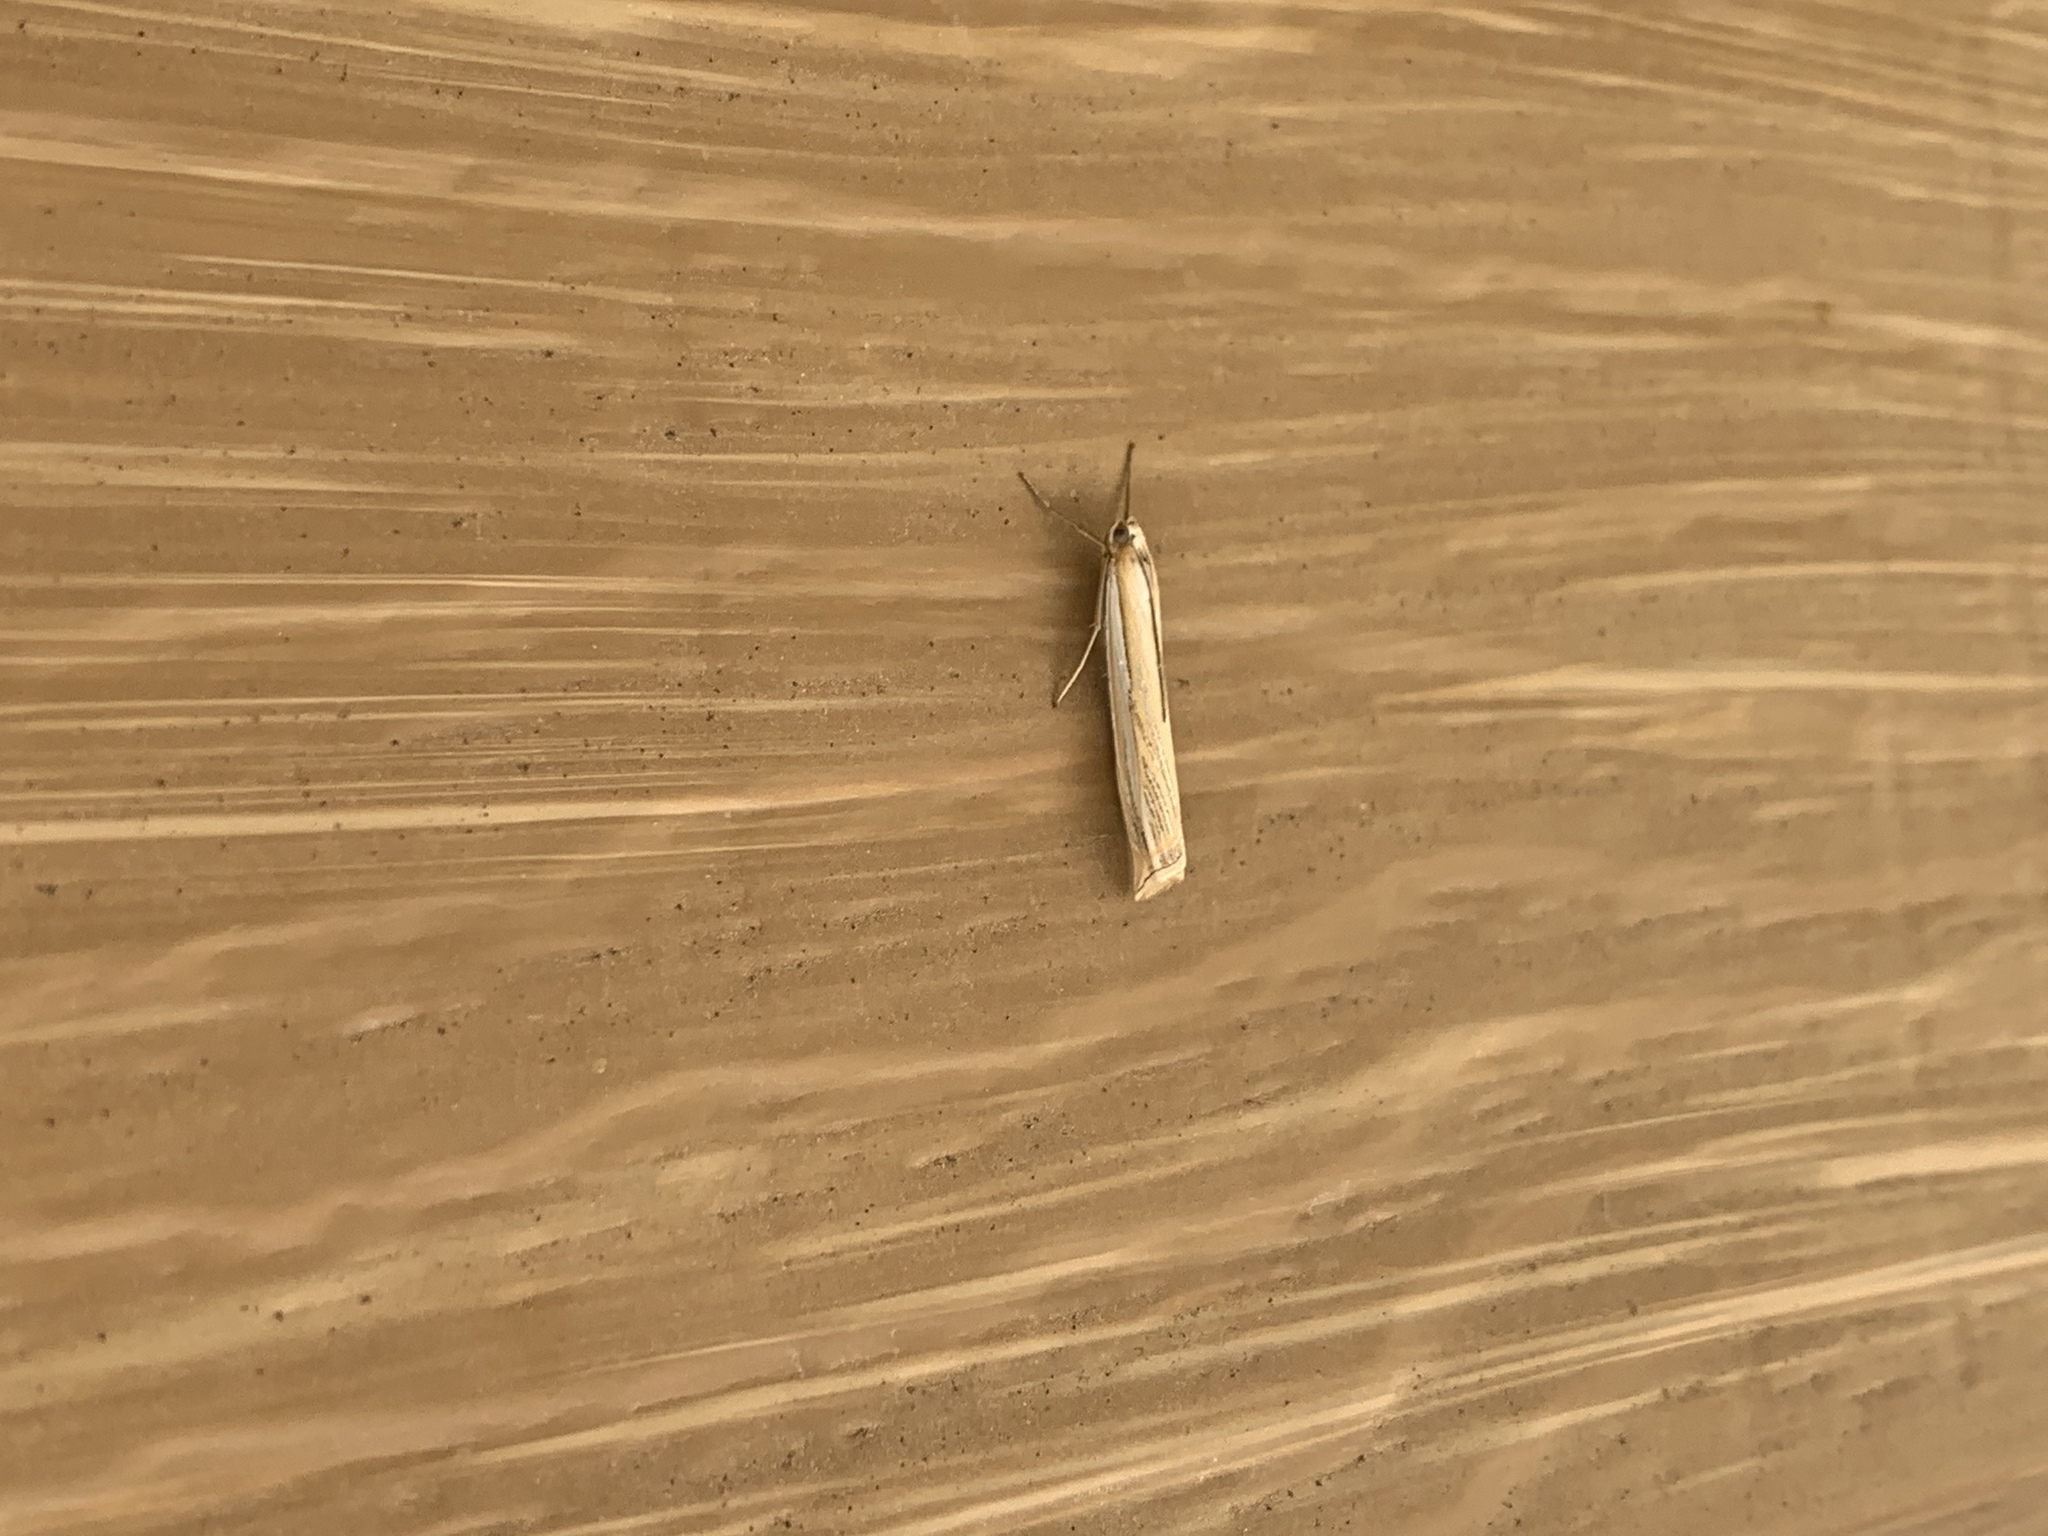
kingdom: Animalia
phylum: Arthropoda
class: Insecta
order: Lepidoptera
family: Crambidae
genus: Crambus
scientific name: Crambus sargentellus
